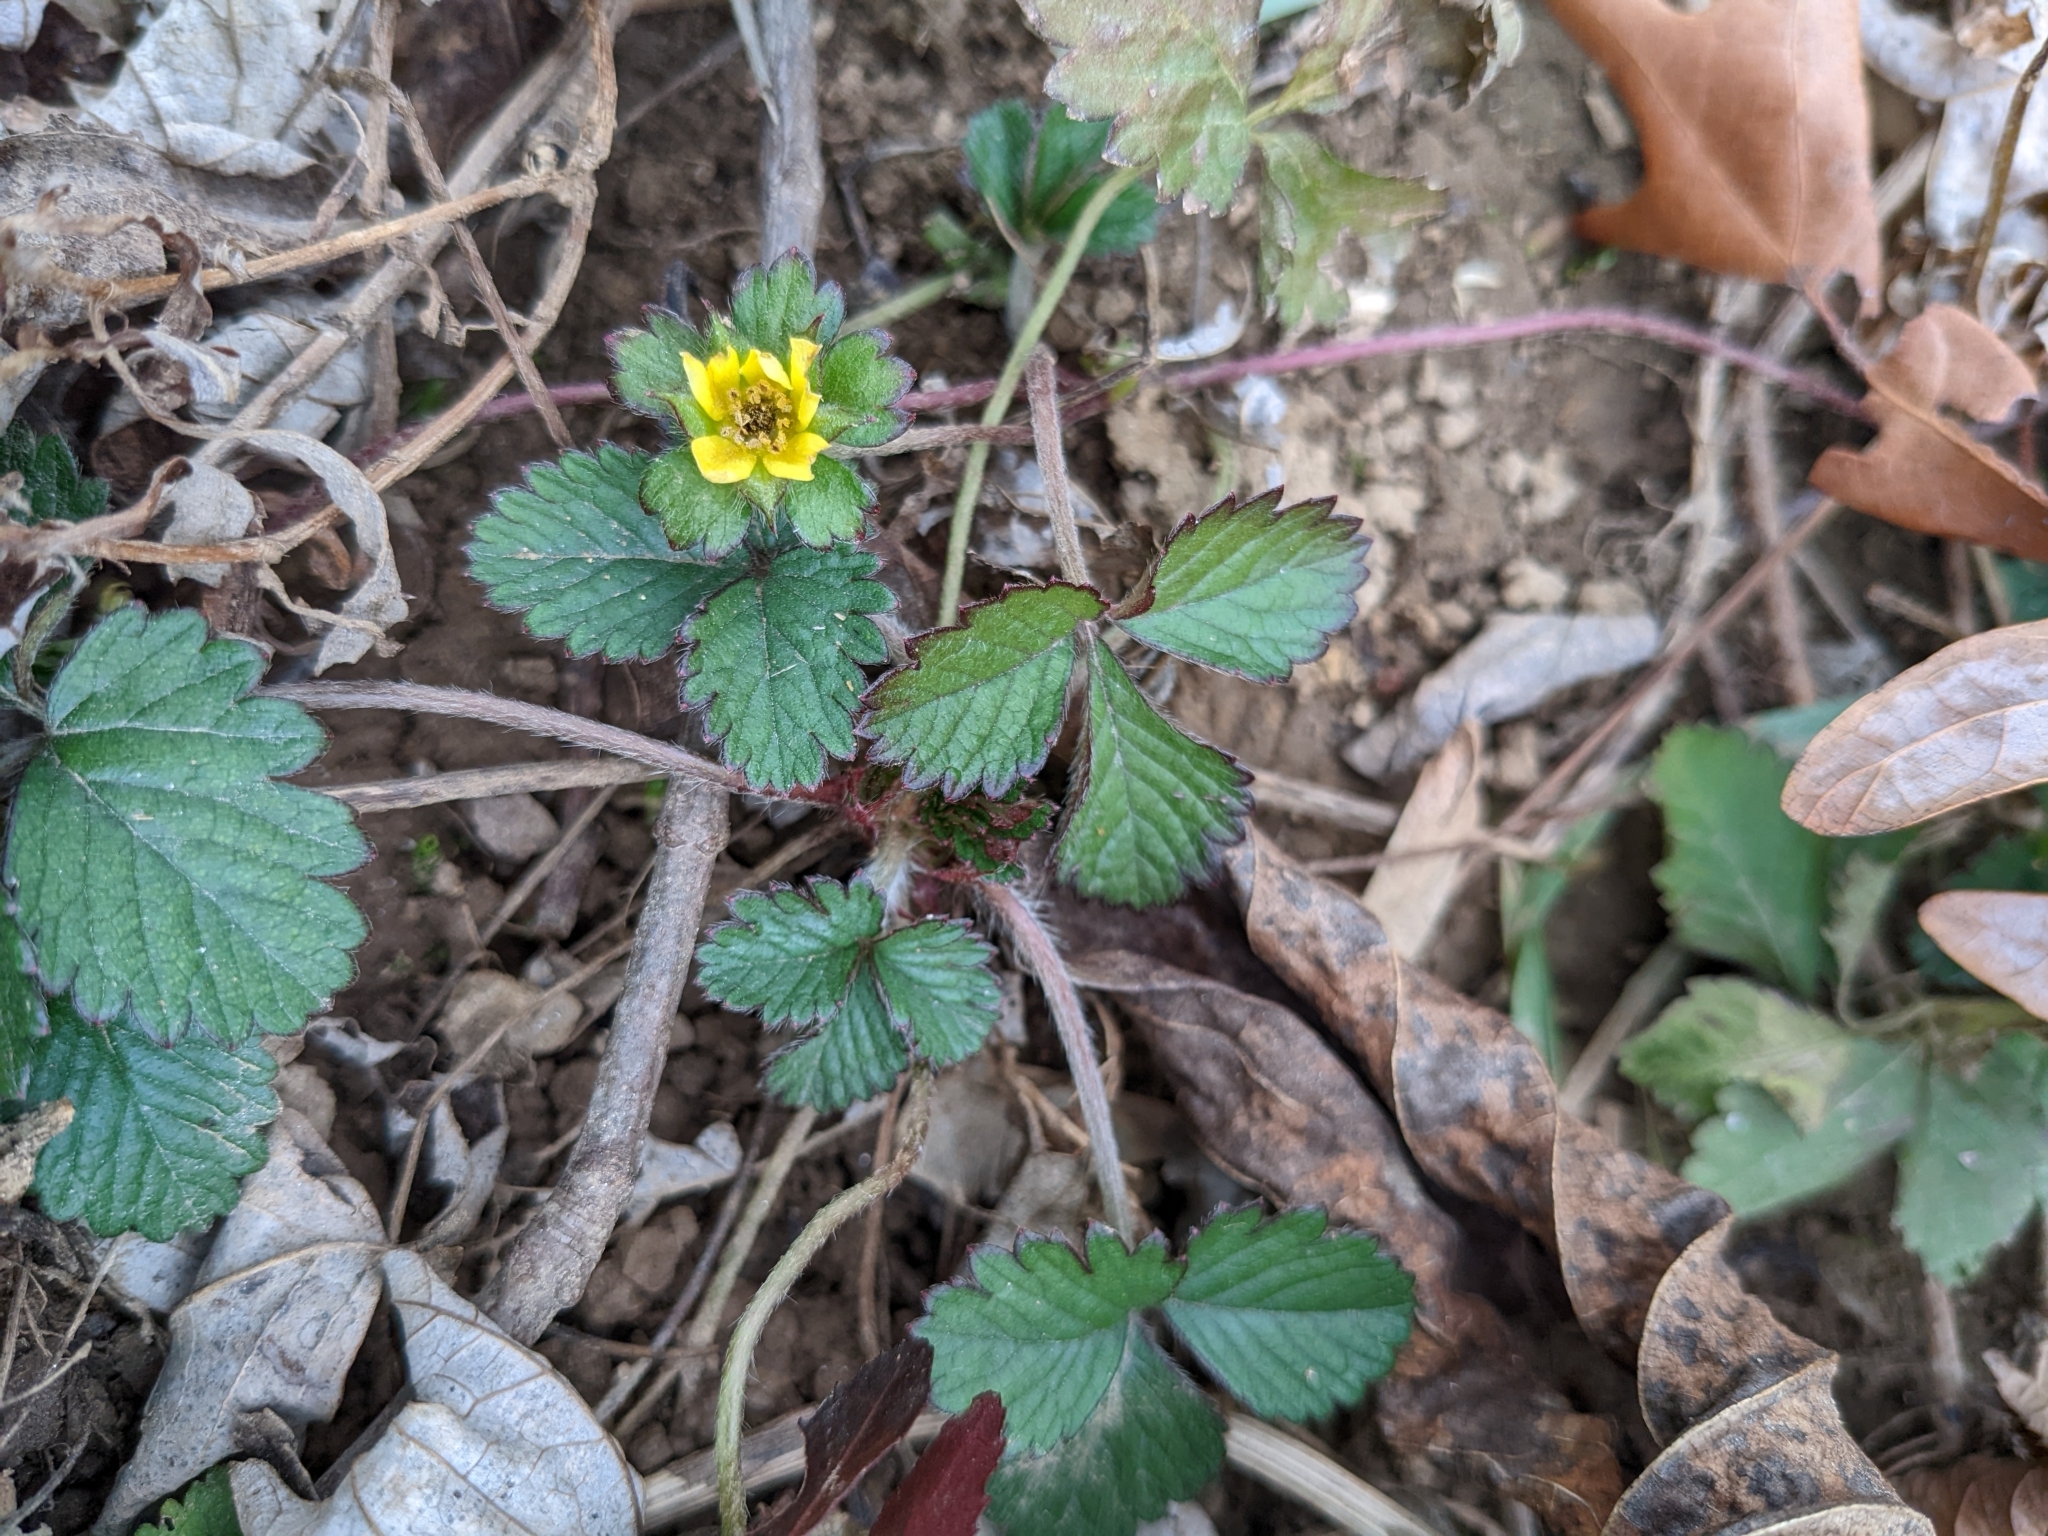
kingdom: Plantae
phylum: Tracheophyta
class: Magnoliopsida
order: Rosales
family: Rosaceae
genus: Potentilla
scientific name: Potentilla indica
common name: Yellow-flowered strawberry
